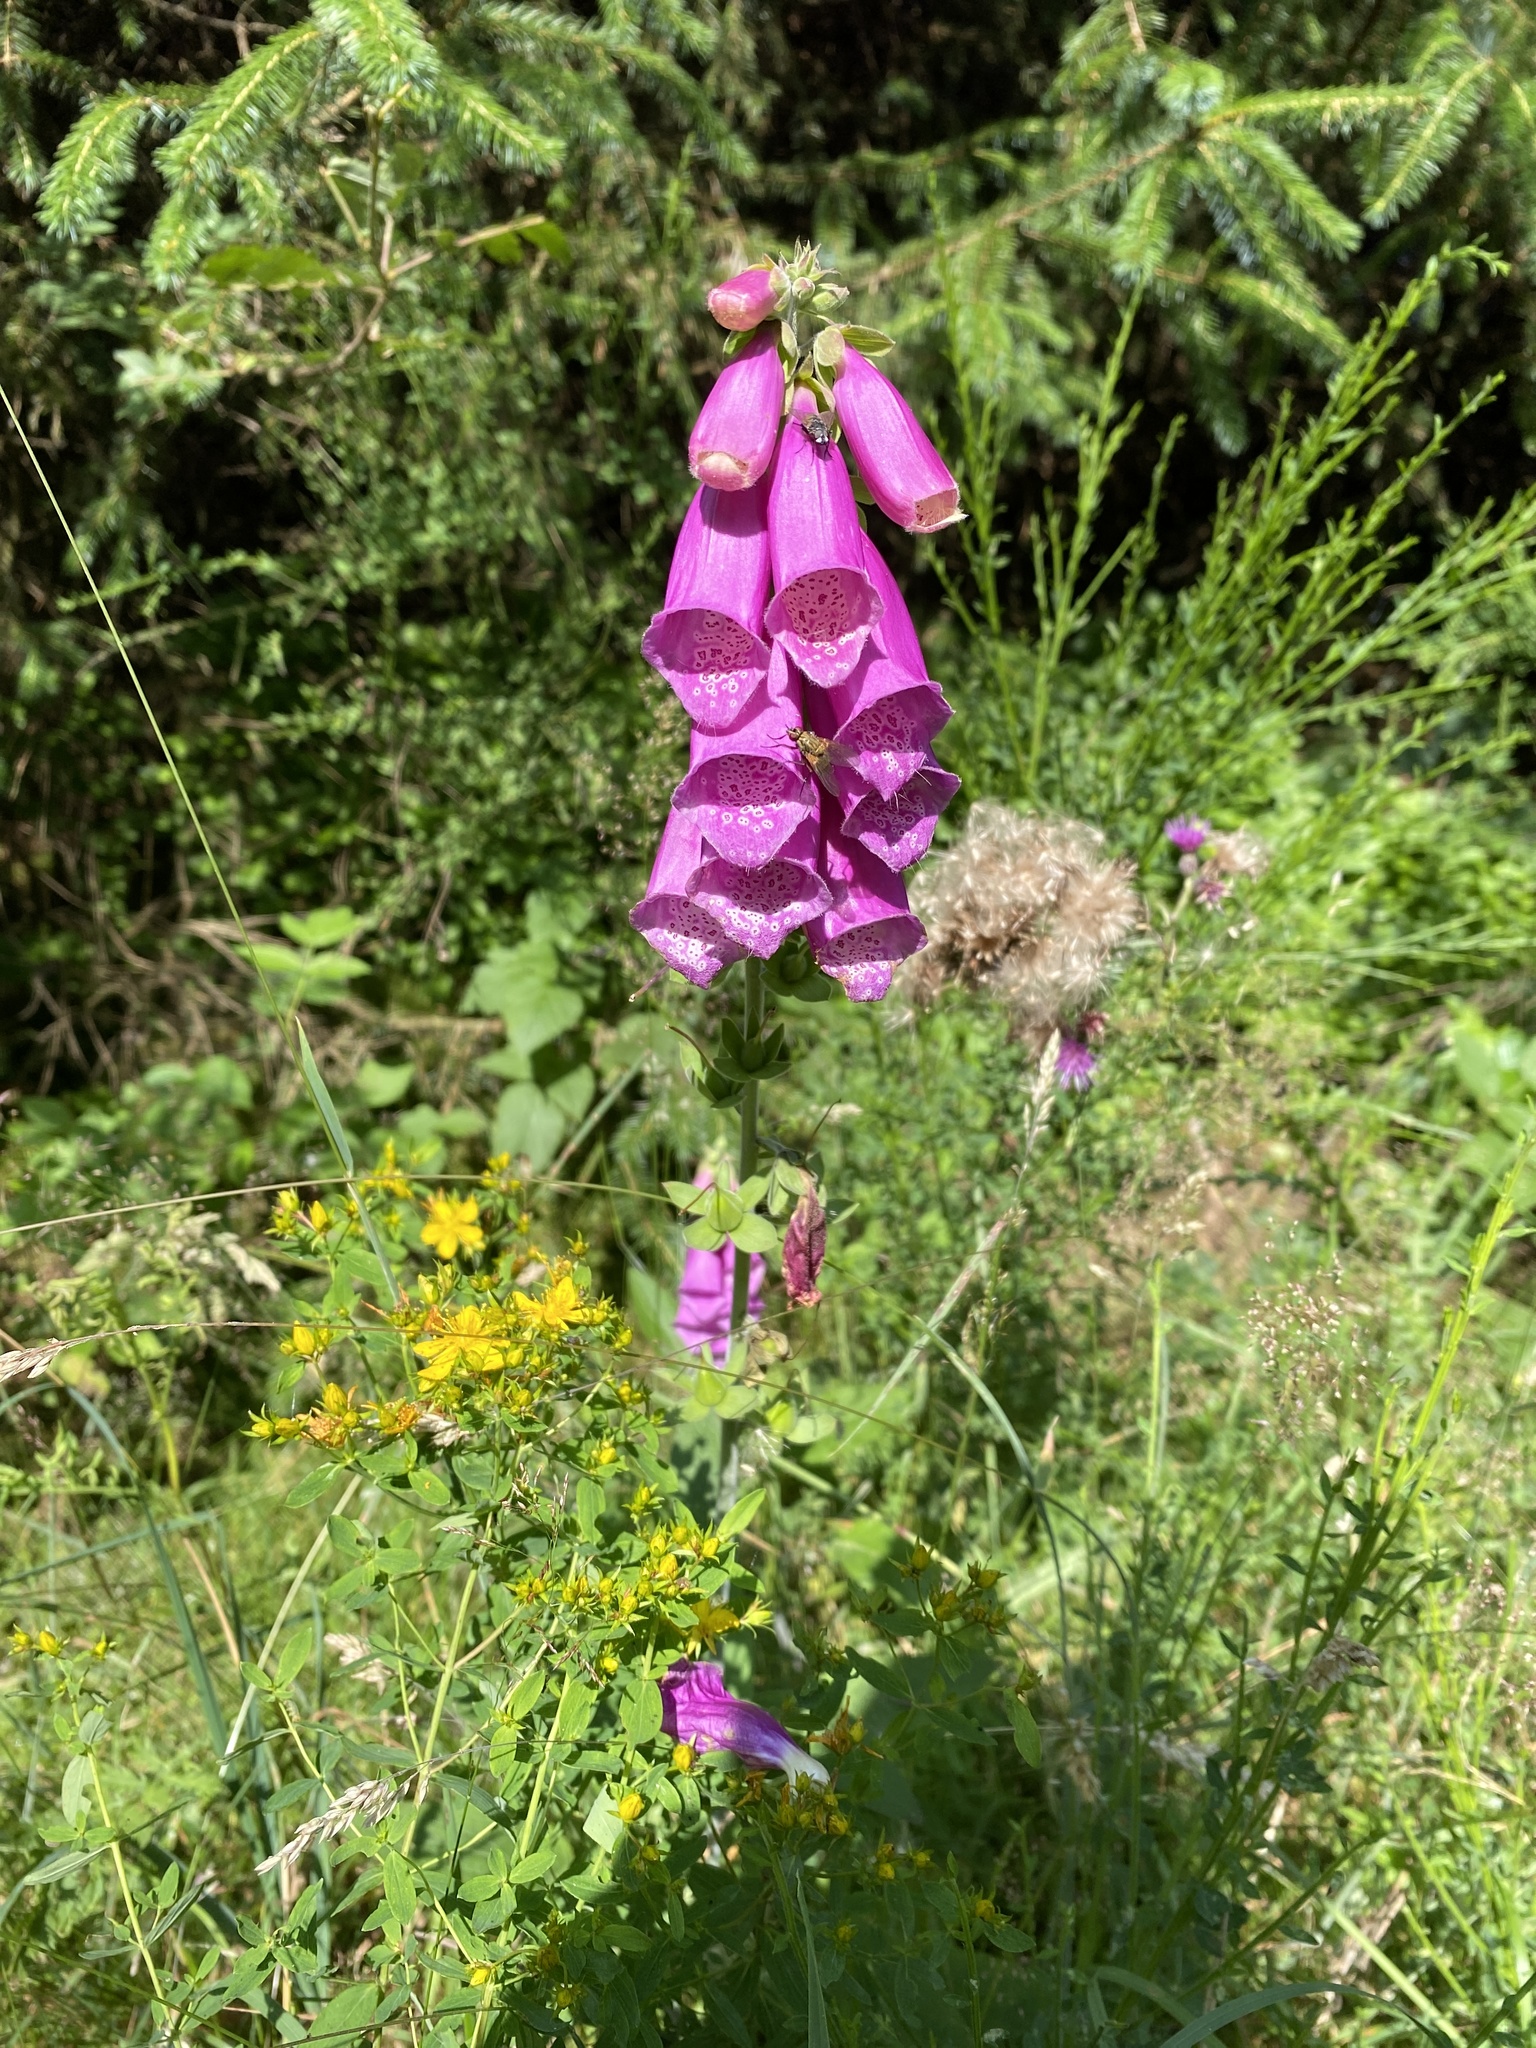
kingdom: Plantae
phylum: Tracheophyta
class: Magnoliopsida
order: Lamiales
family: Plantaginaceae
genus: Digitalis
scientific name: Digitalis purpurea
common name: Foxglove
